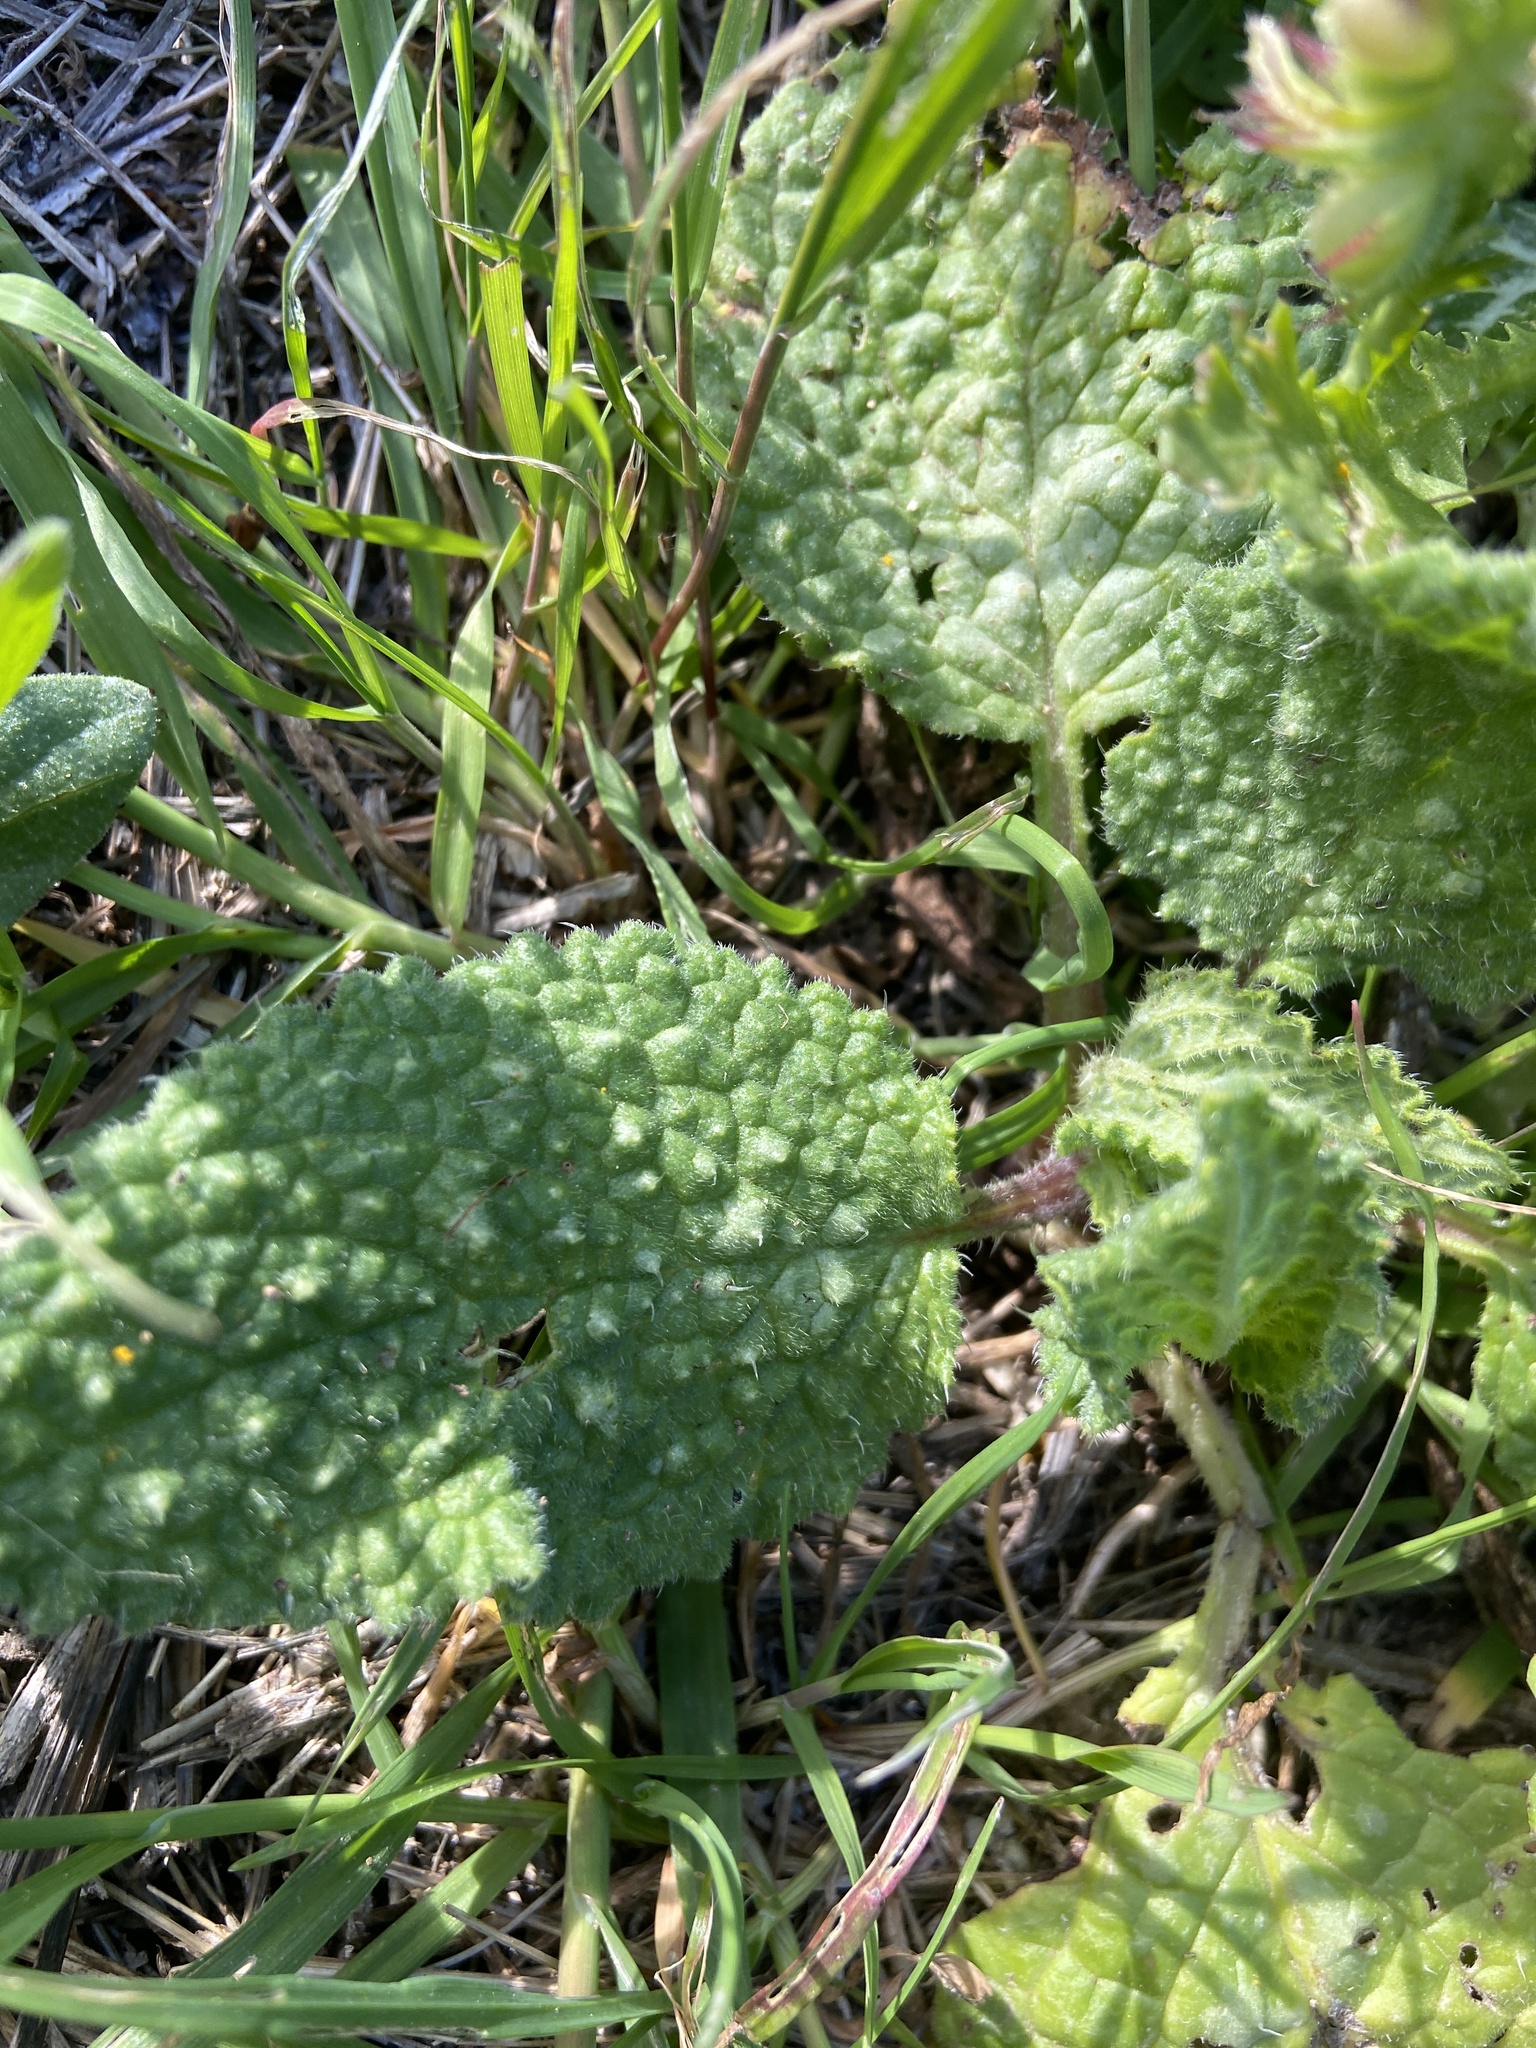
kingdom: Plantae
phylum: Tracheophyta
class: Magnoliopsida
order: Boraginales
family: Boraginaceae
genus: Borago
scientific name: Borago officinalis
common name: Borage
